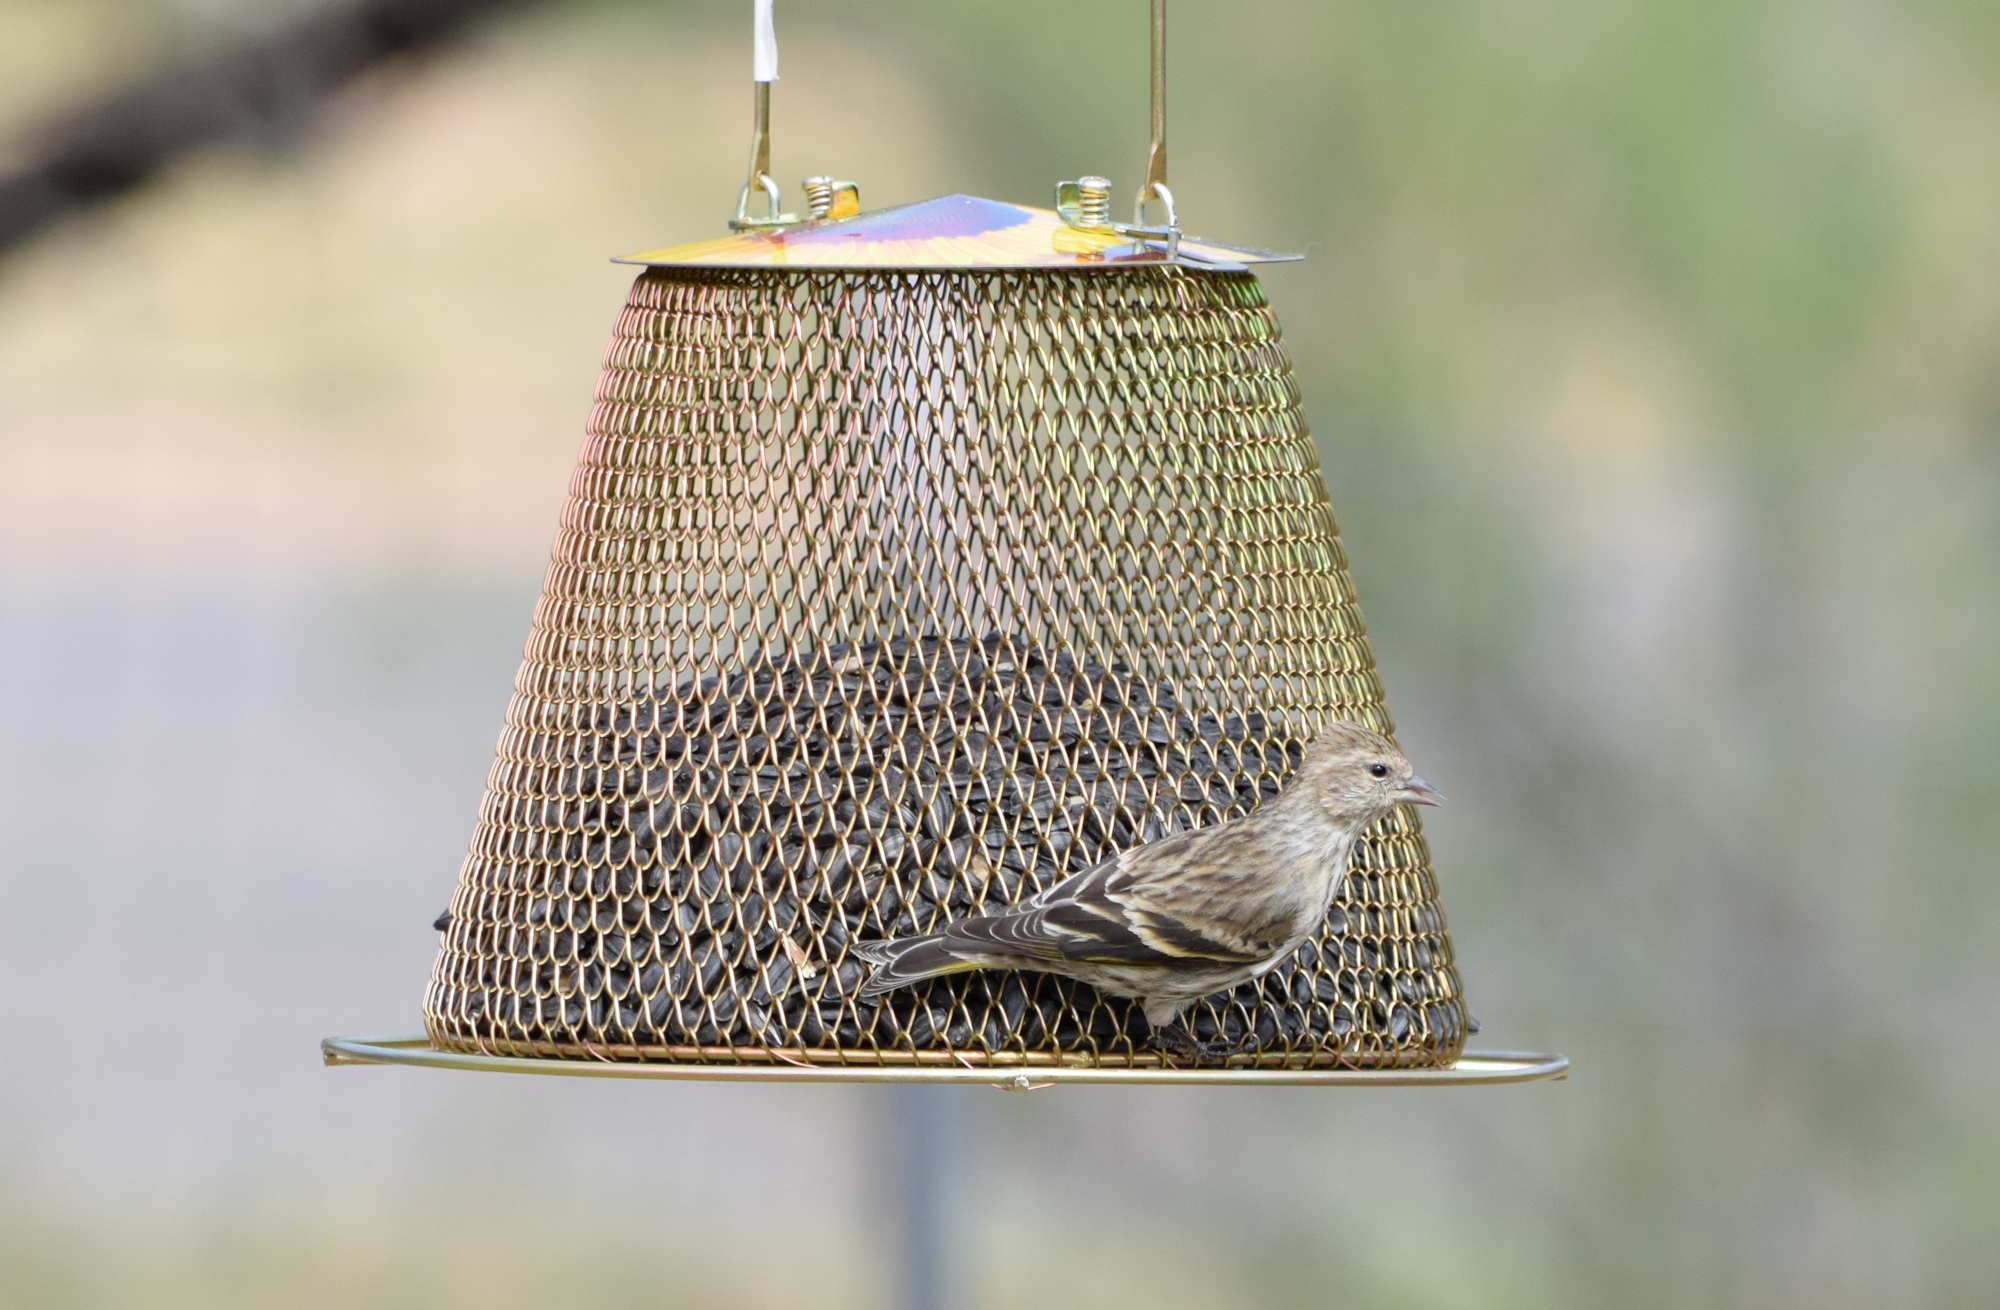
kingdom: Animalia
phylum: Chordata
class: Aves
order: Passeriformes
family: Fringillidae
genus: Spinus
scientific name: Spinus pinus
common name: Pine siskin
